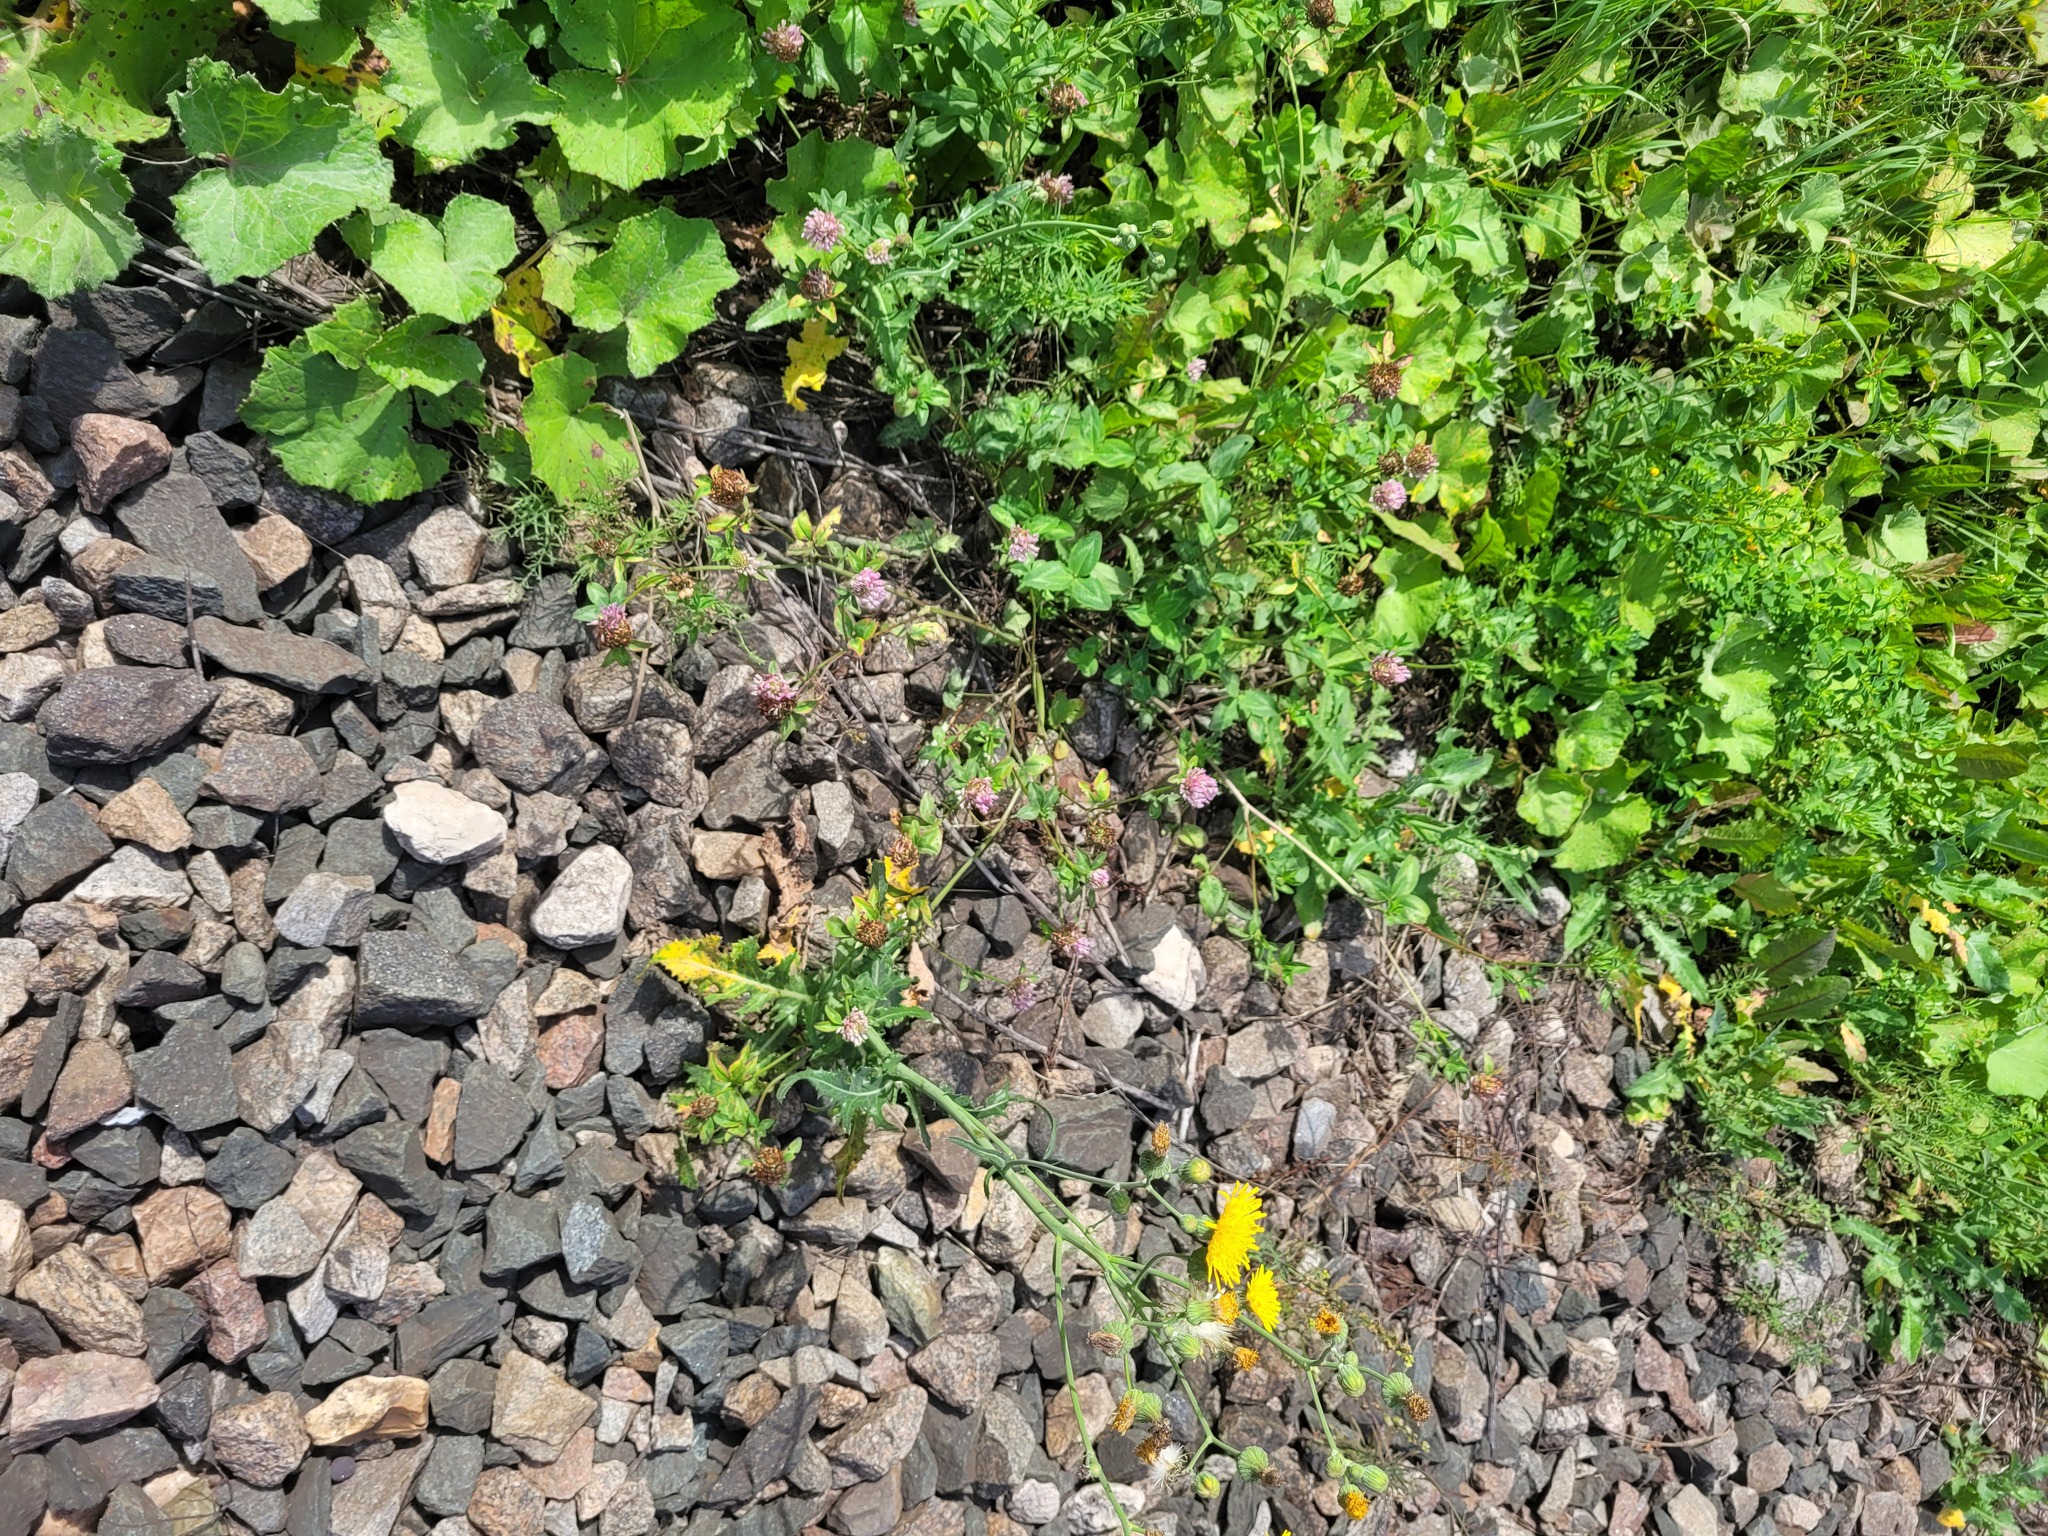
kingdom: Plantae
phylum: Tracheophyta
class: Magnoliopsida
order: Fabales
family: Fabaceae
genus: Trifolium
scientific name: Trifolium pratense
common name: Red clover
